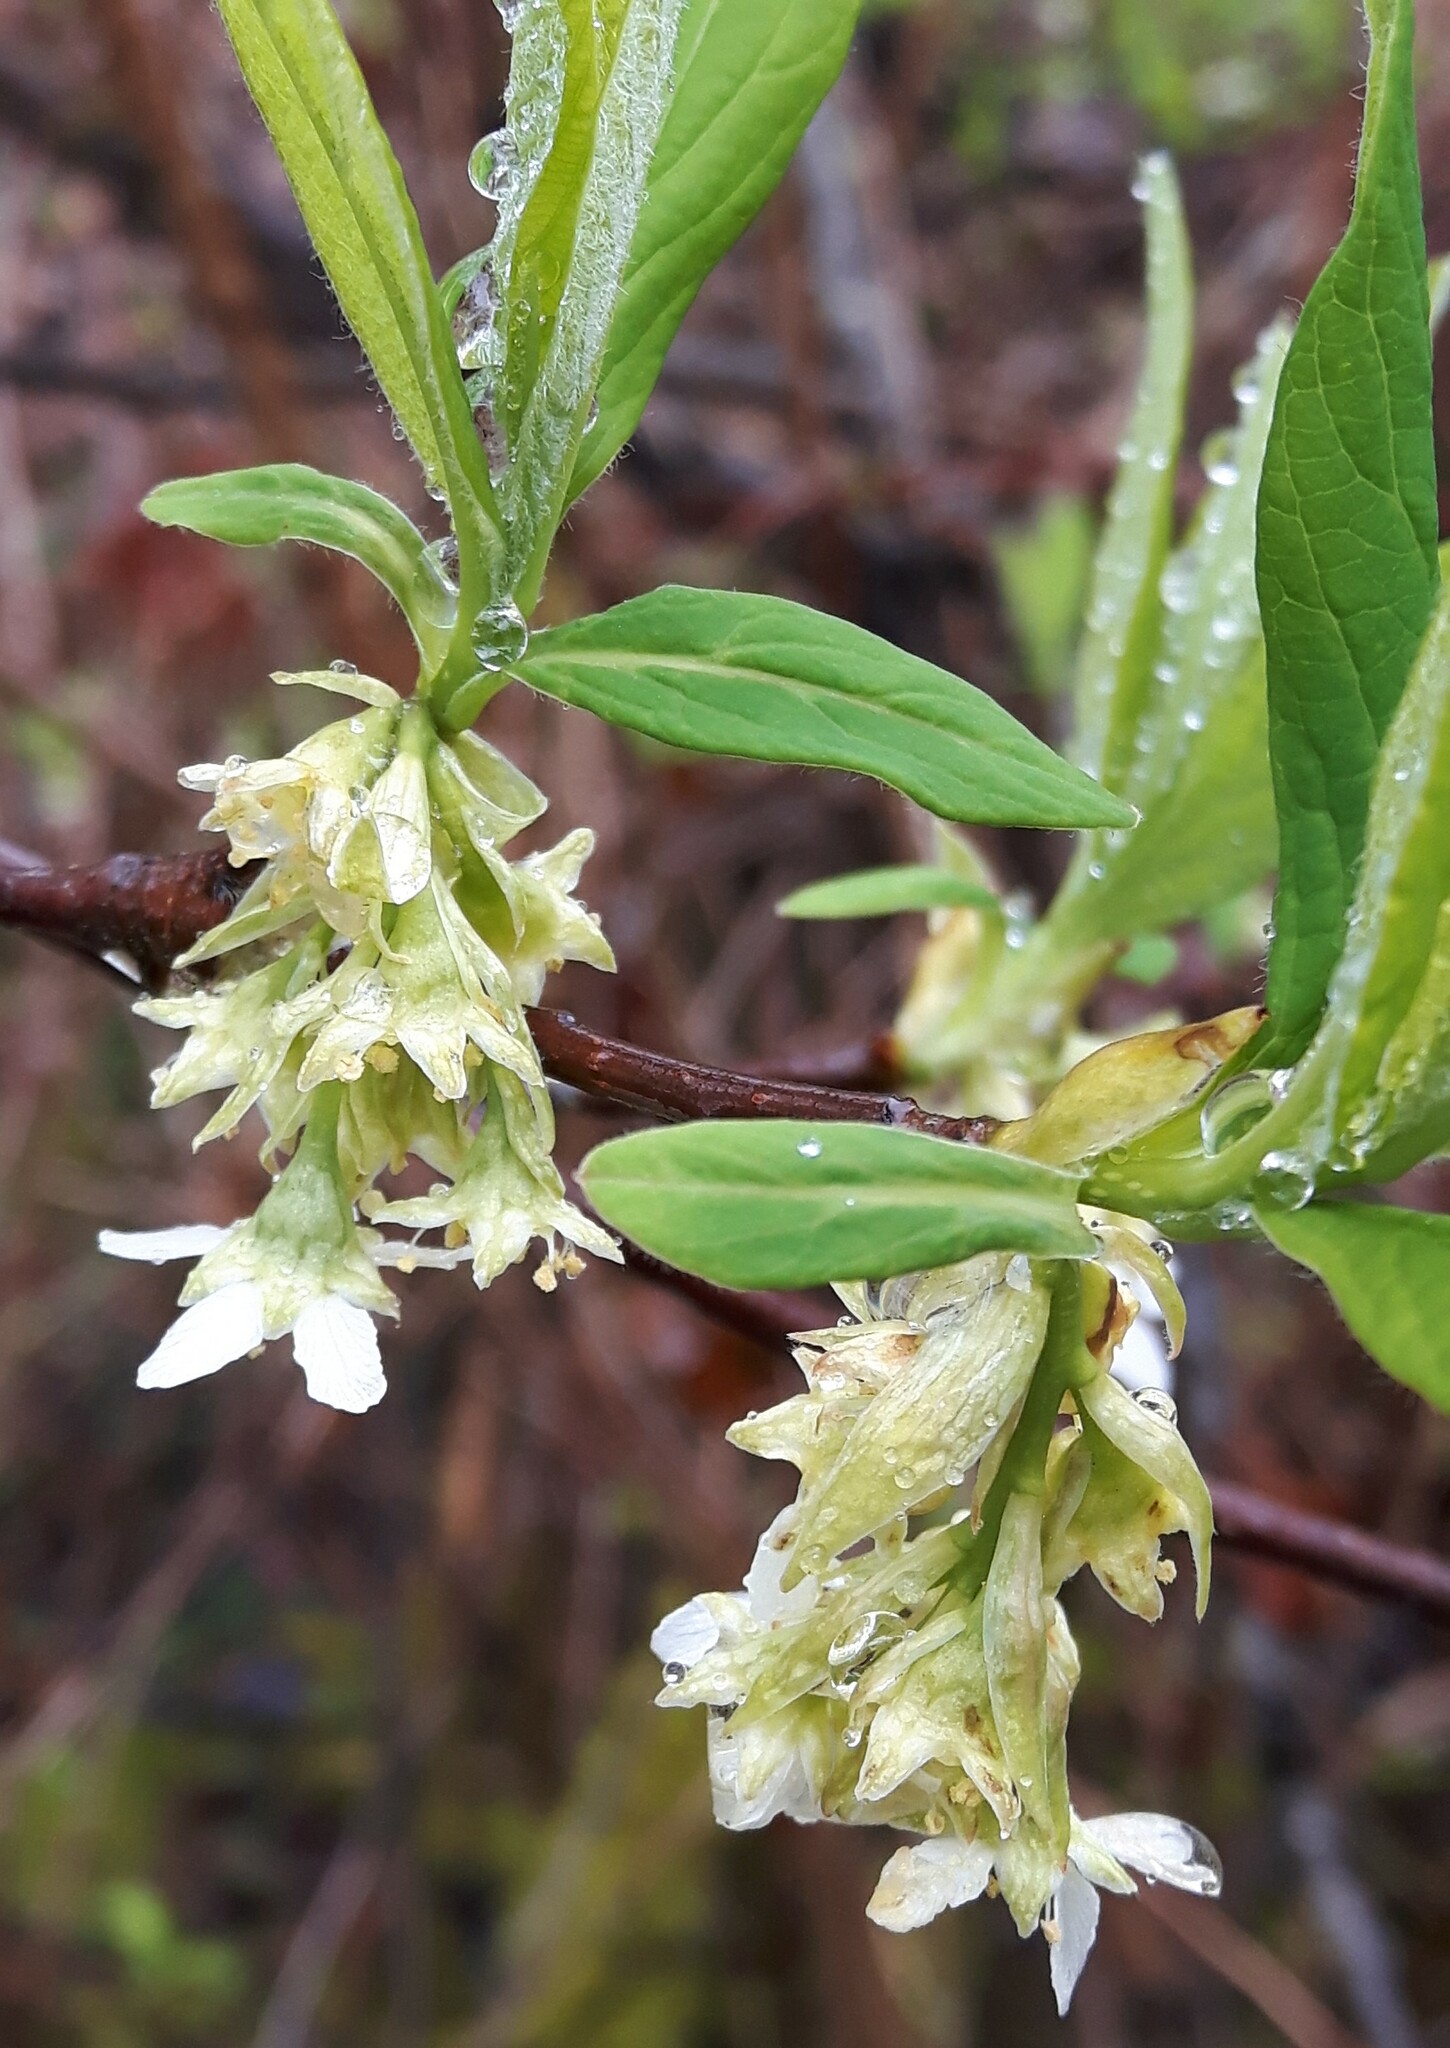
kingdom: Plantae
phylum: Tracheophyta
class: Magnoliopsida
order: Rosales
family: Rosaceae
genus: Oemleria
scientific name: Oemleria cerasiformis
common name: Osoberry
